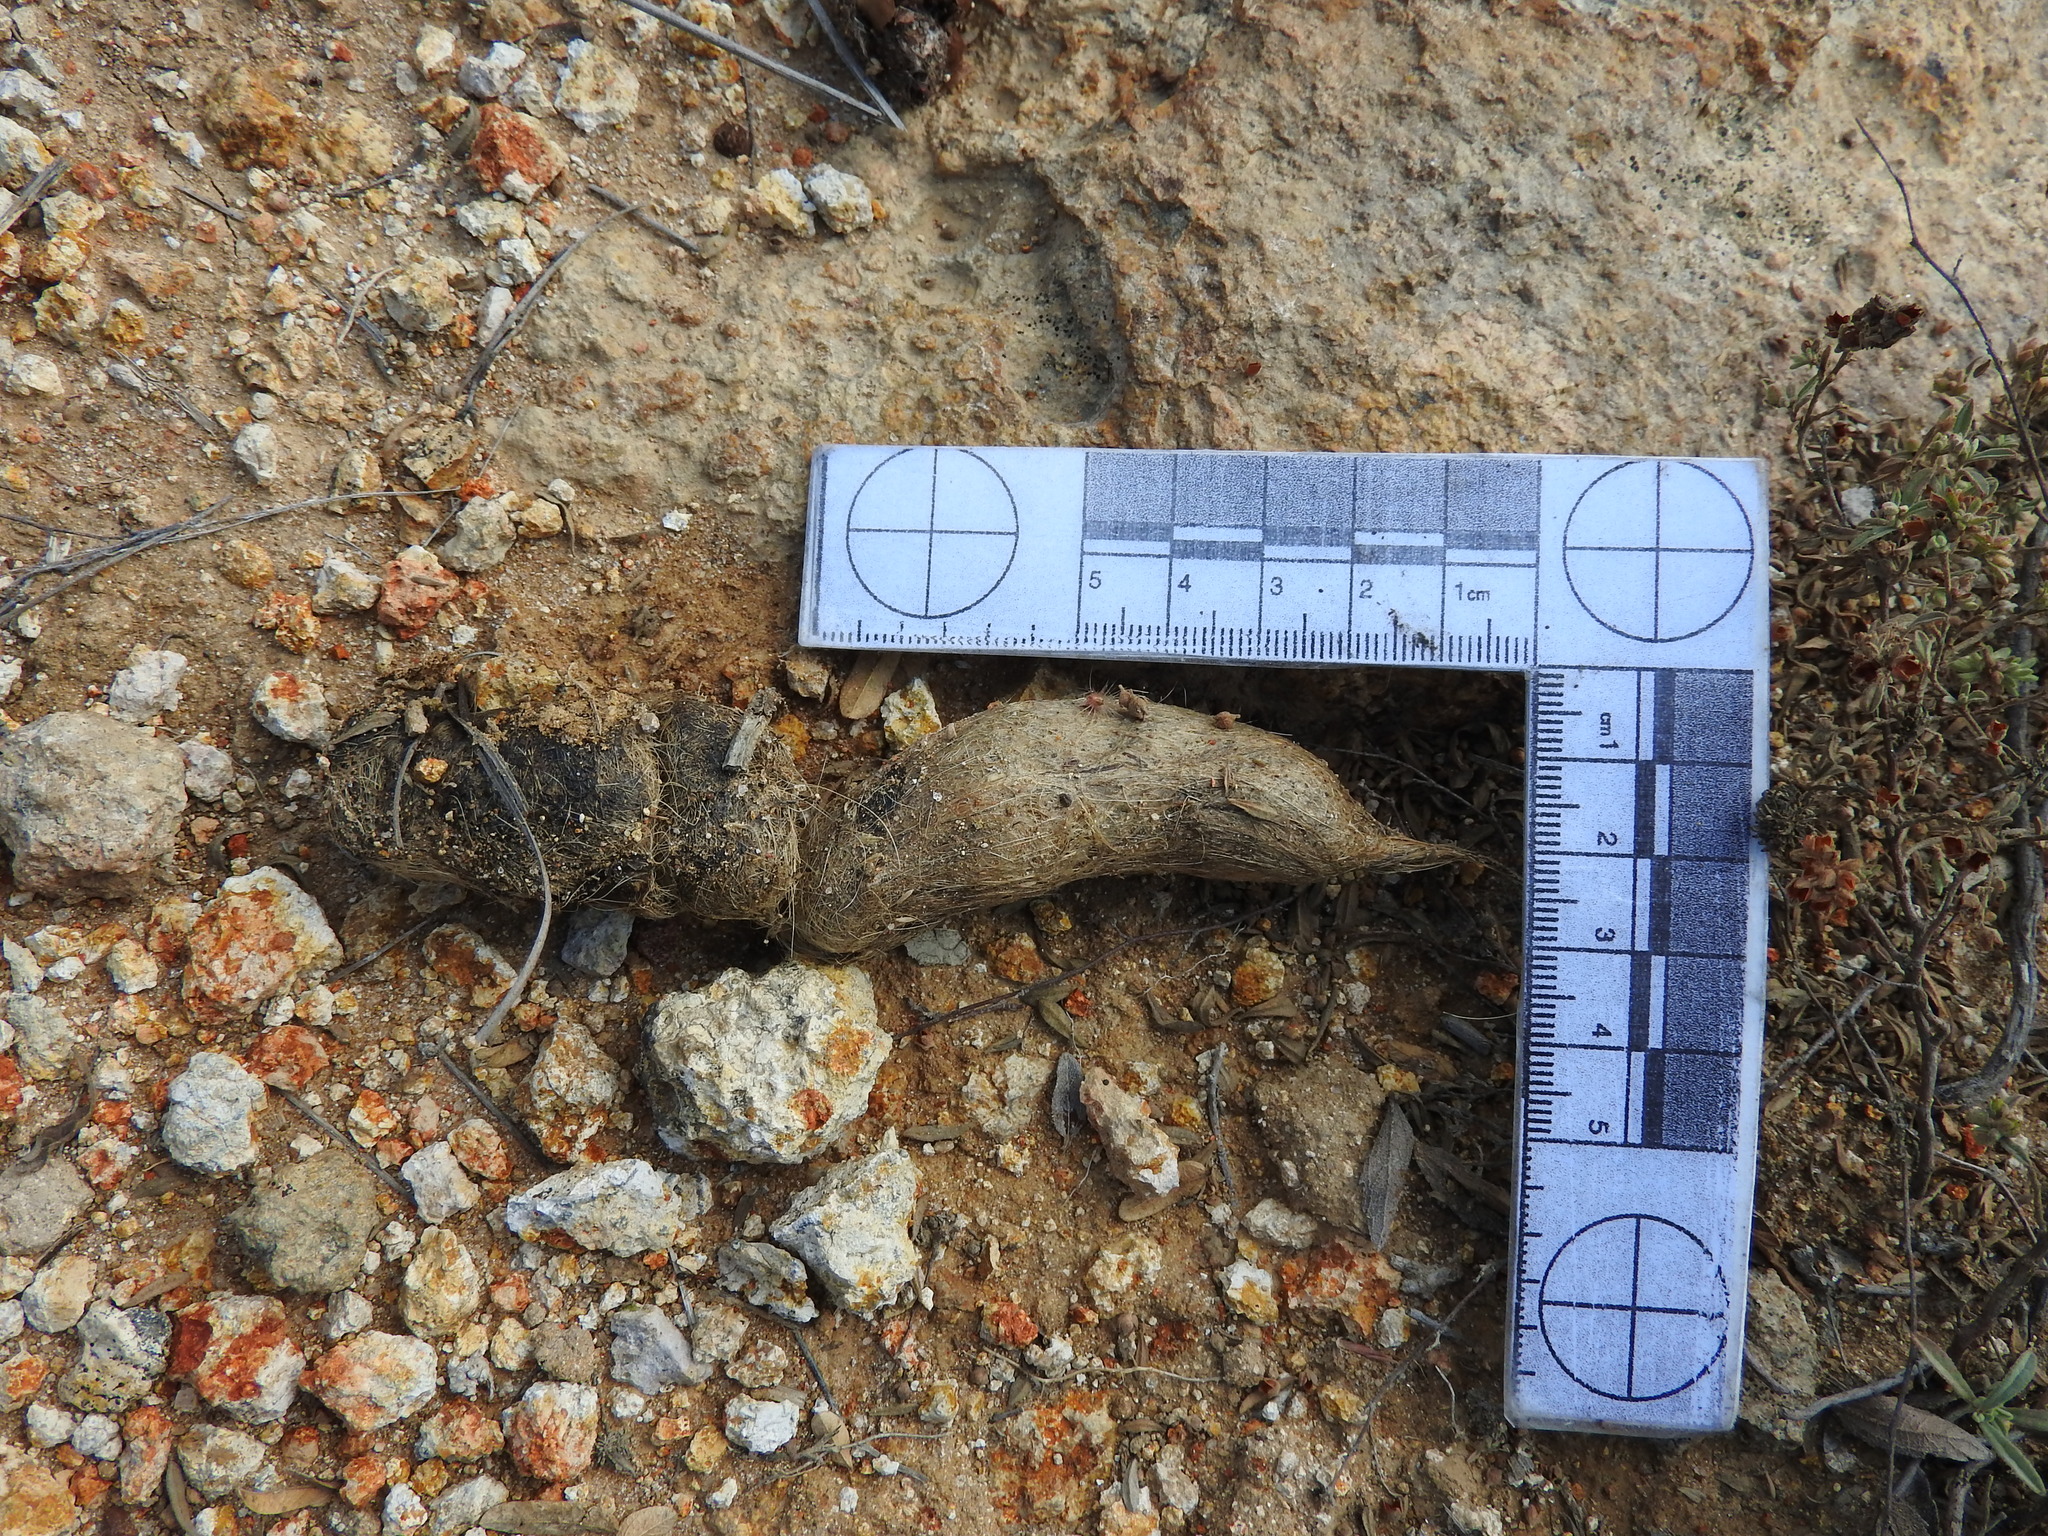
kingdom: Animalia
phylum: Chordata
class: Mammalia
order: Carnivora
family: Canidae
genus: Canis
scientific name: Canis latrans
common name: Coyote
